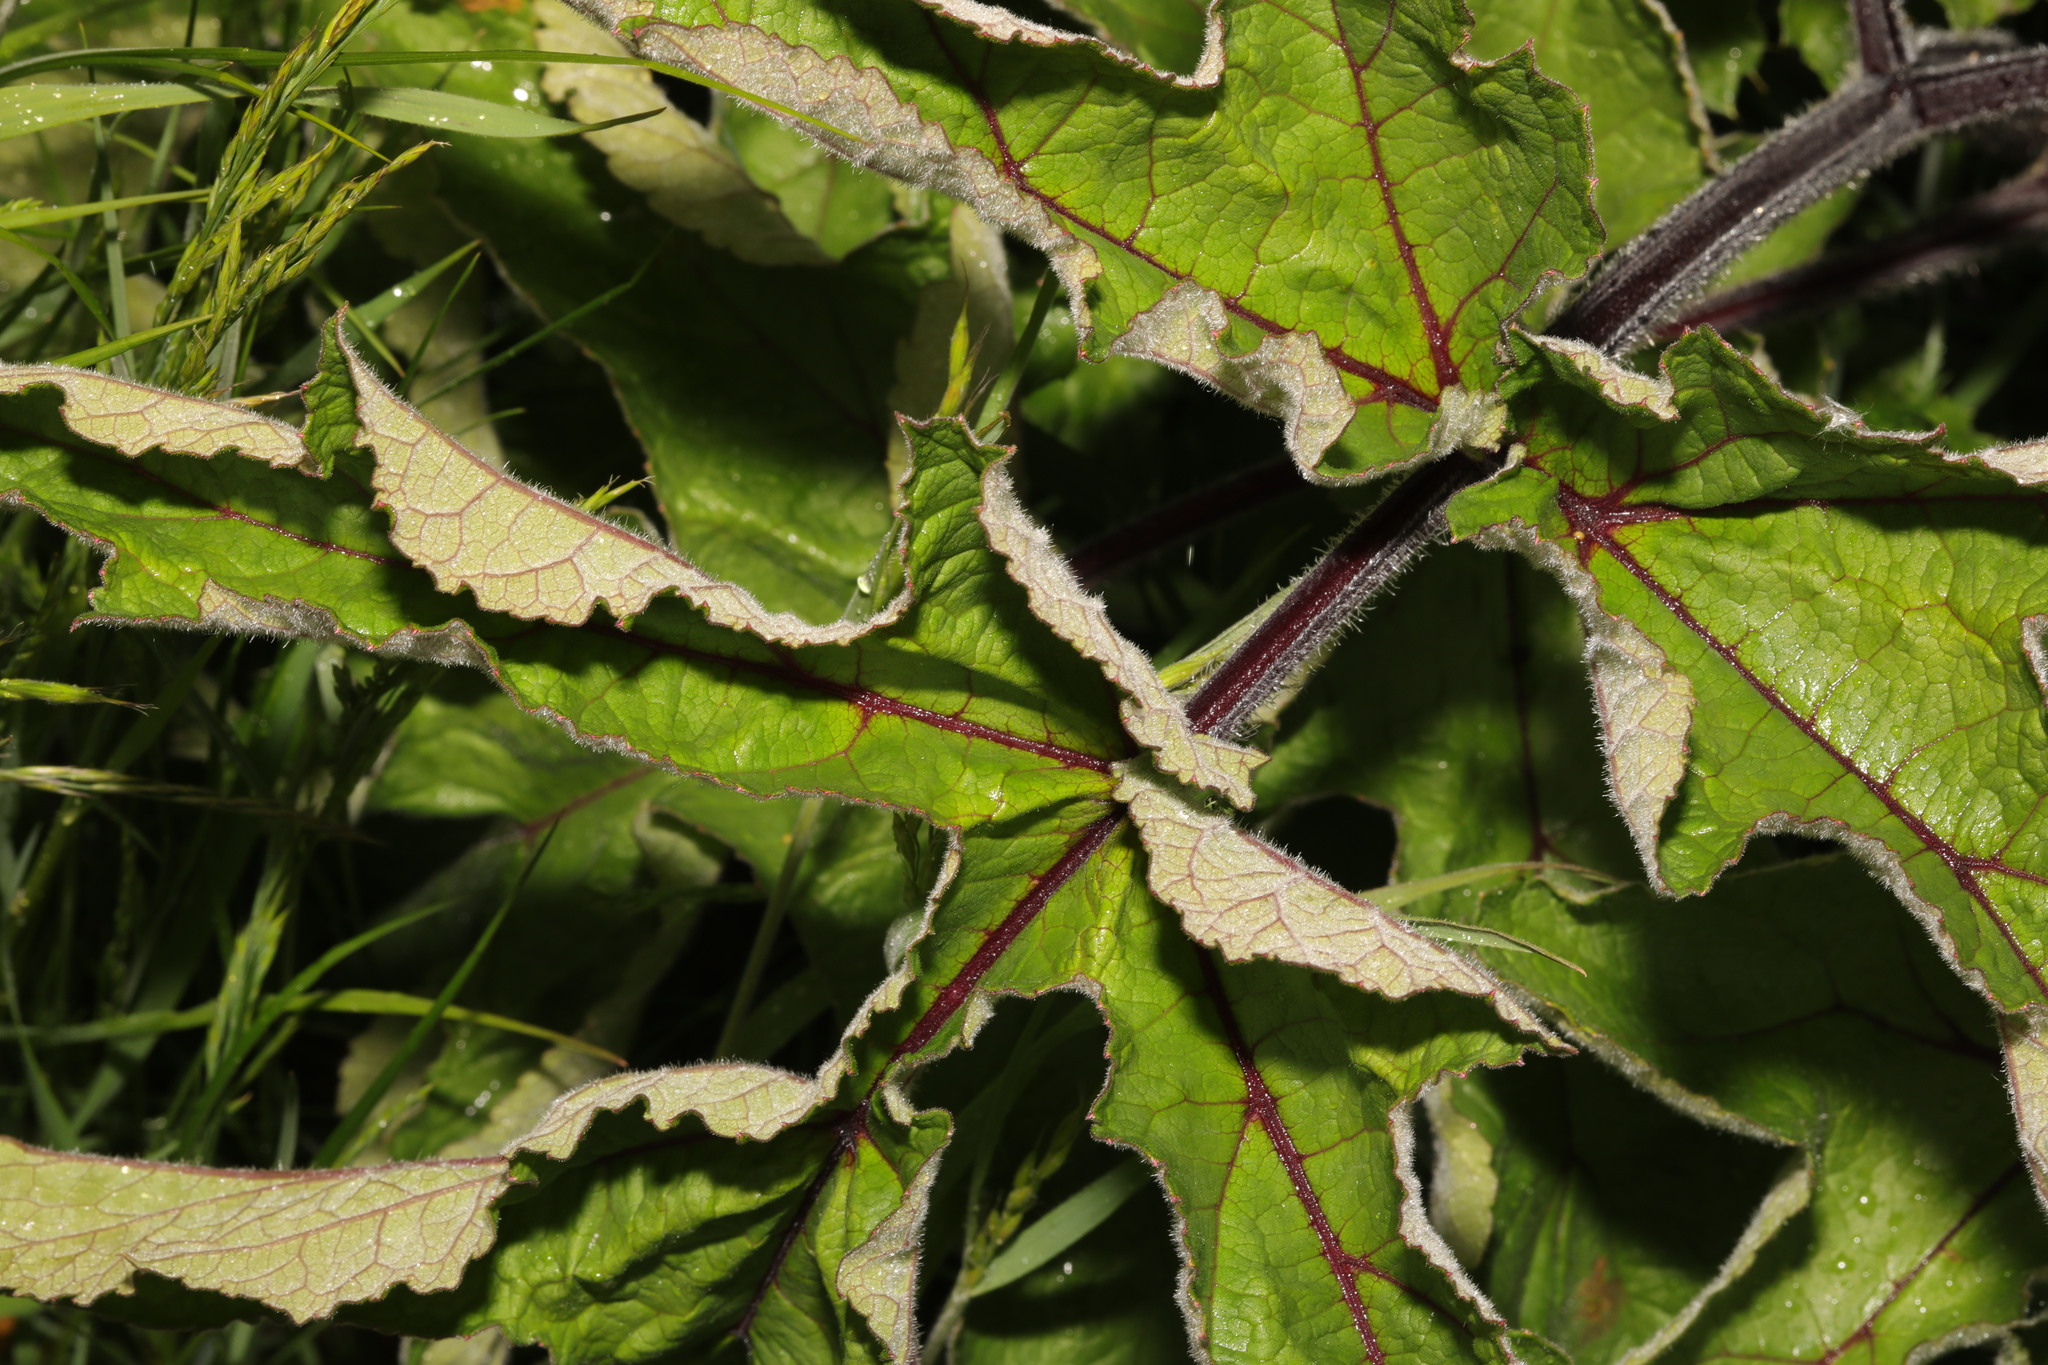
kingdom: Plantae
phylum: Tracheophyta
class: Magnoliopsida
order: Apiales
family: Apiaceae
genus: Heracleum
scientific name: Heracleum sphondylium
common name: Hogweed
